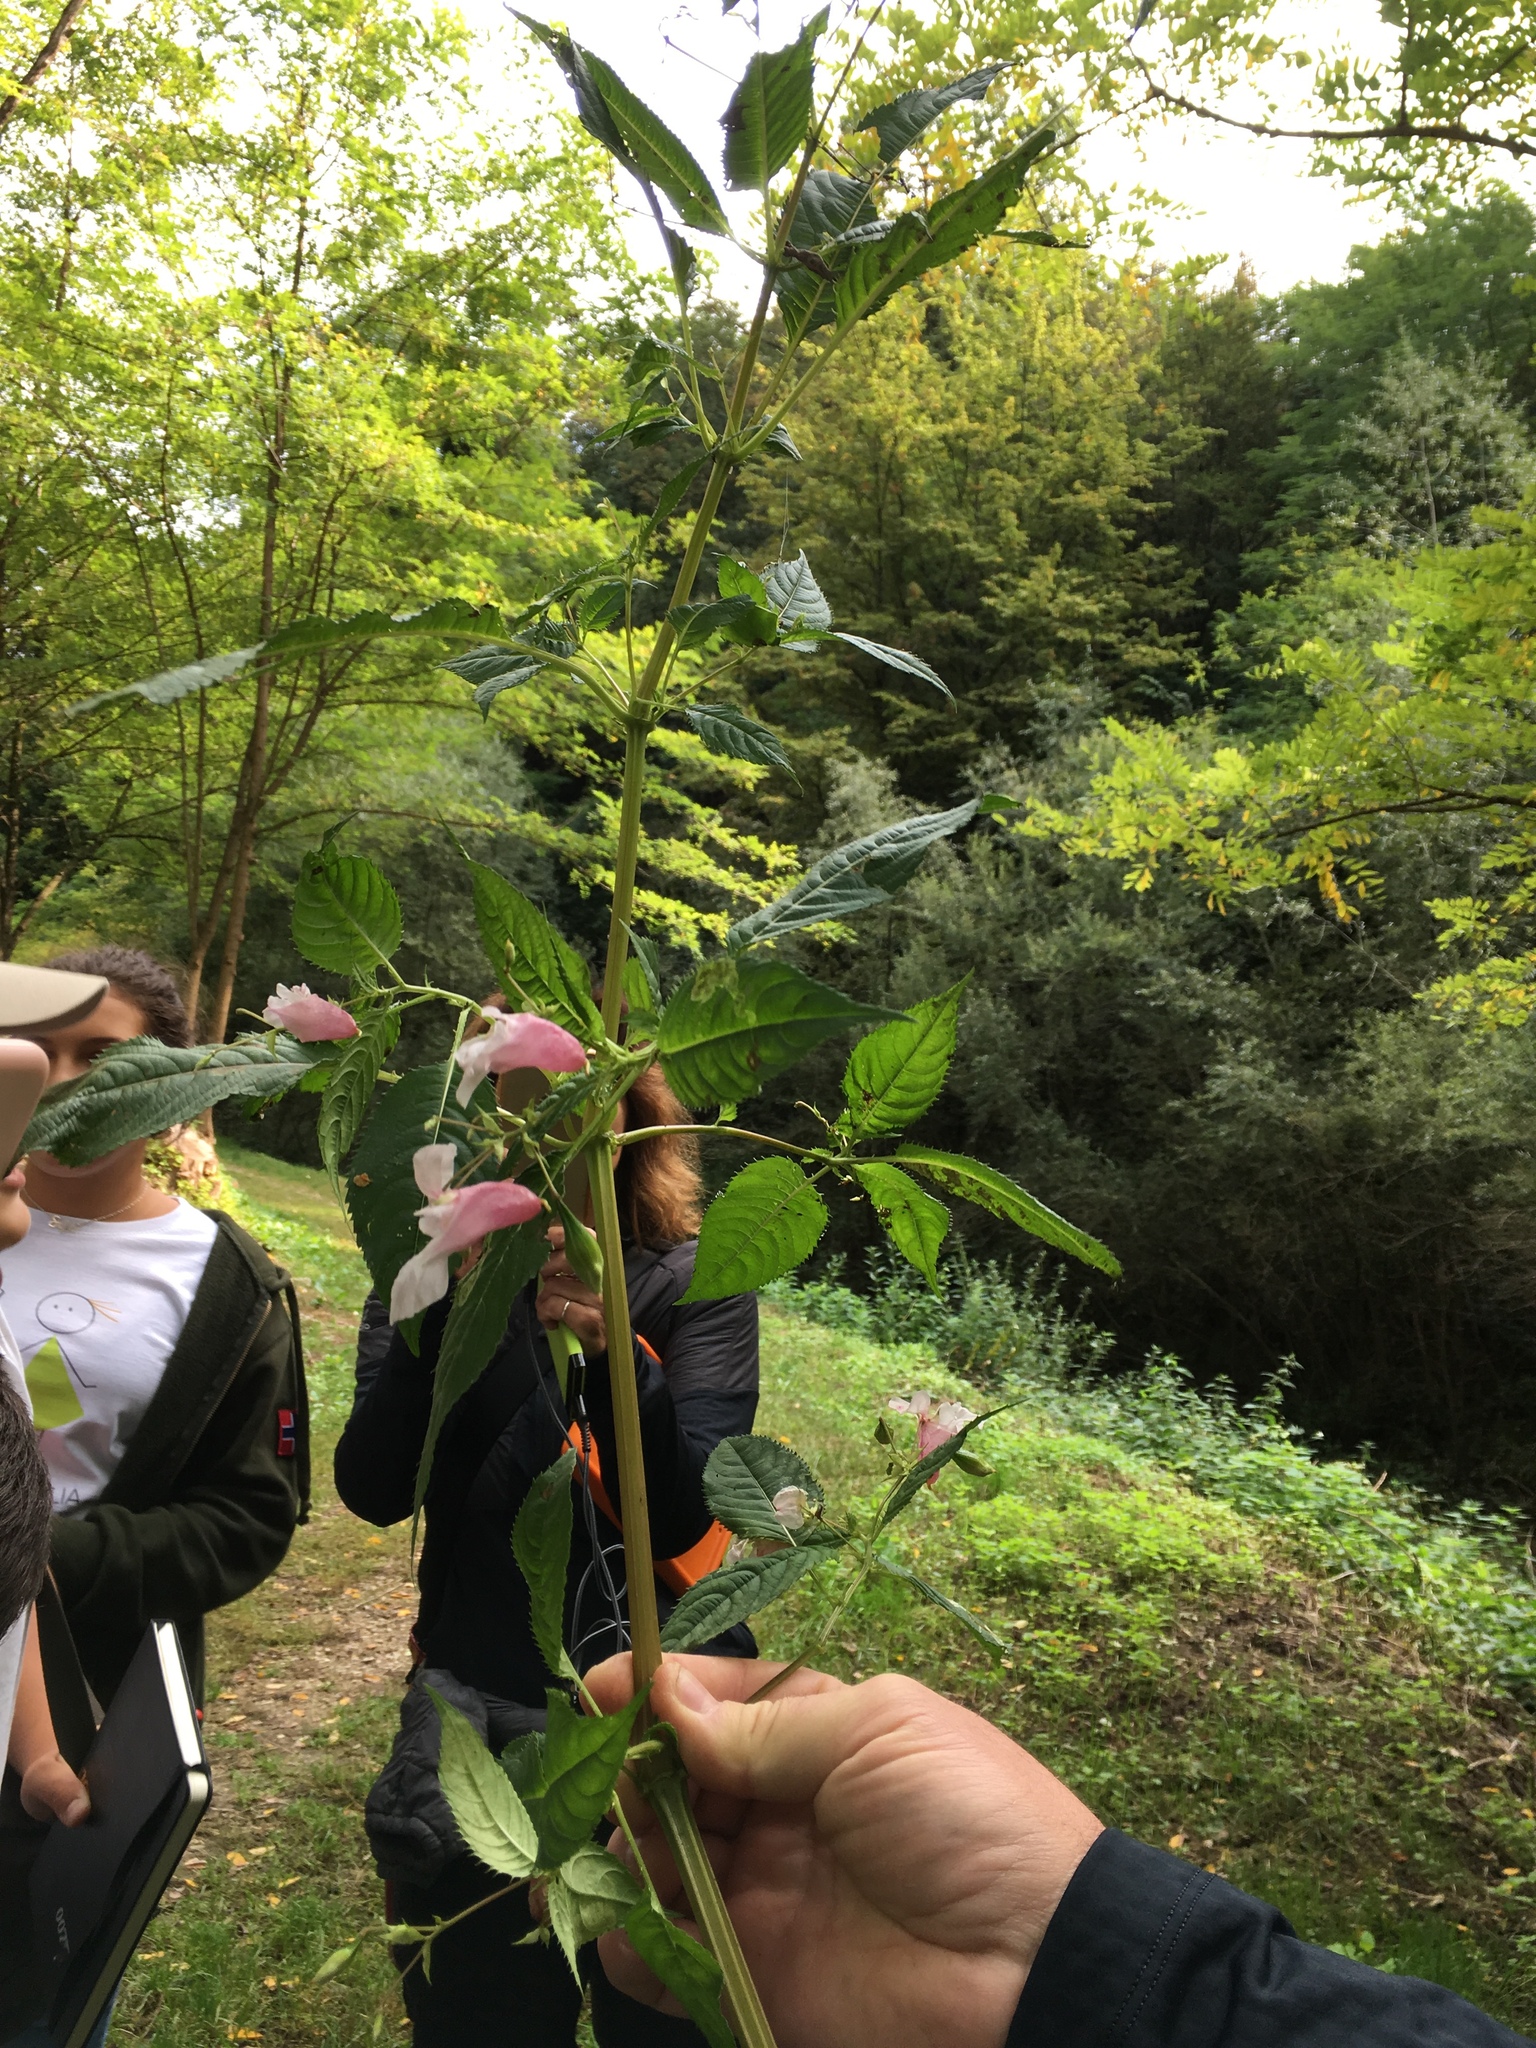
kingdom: Plantae
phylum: Tracheophyta
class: Magnoliopsida
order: Ericales
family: Balsaminaceae
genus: Impatiens
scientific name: Impatiens glandulifera
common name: Himalayan balsam
